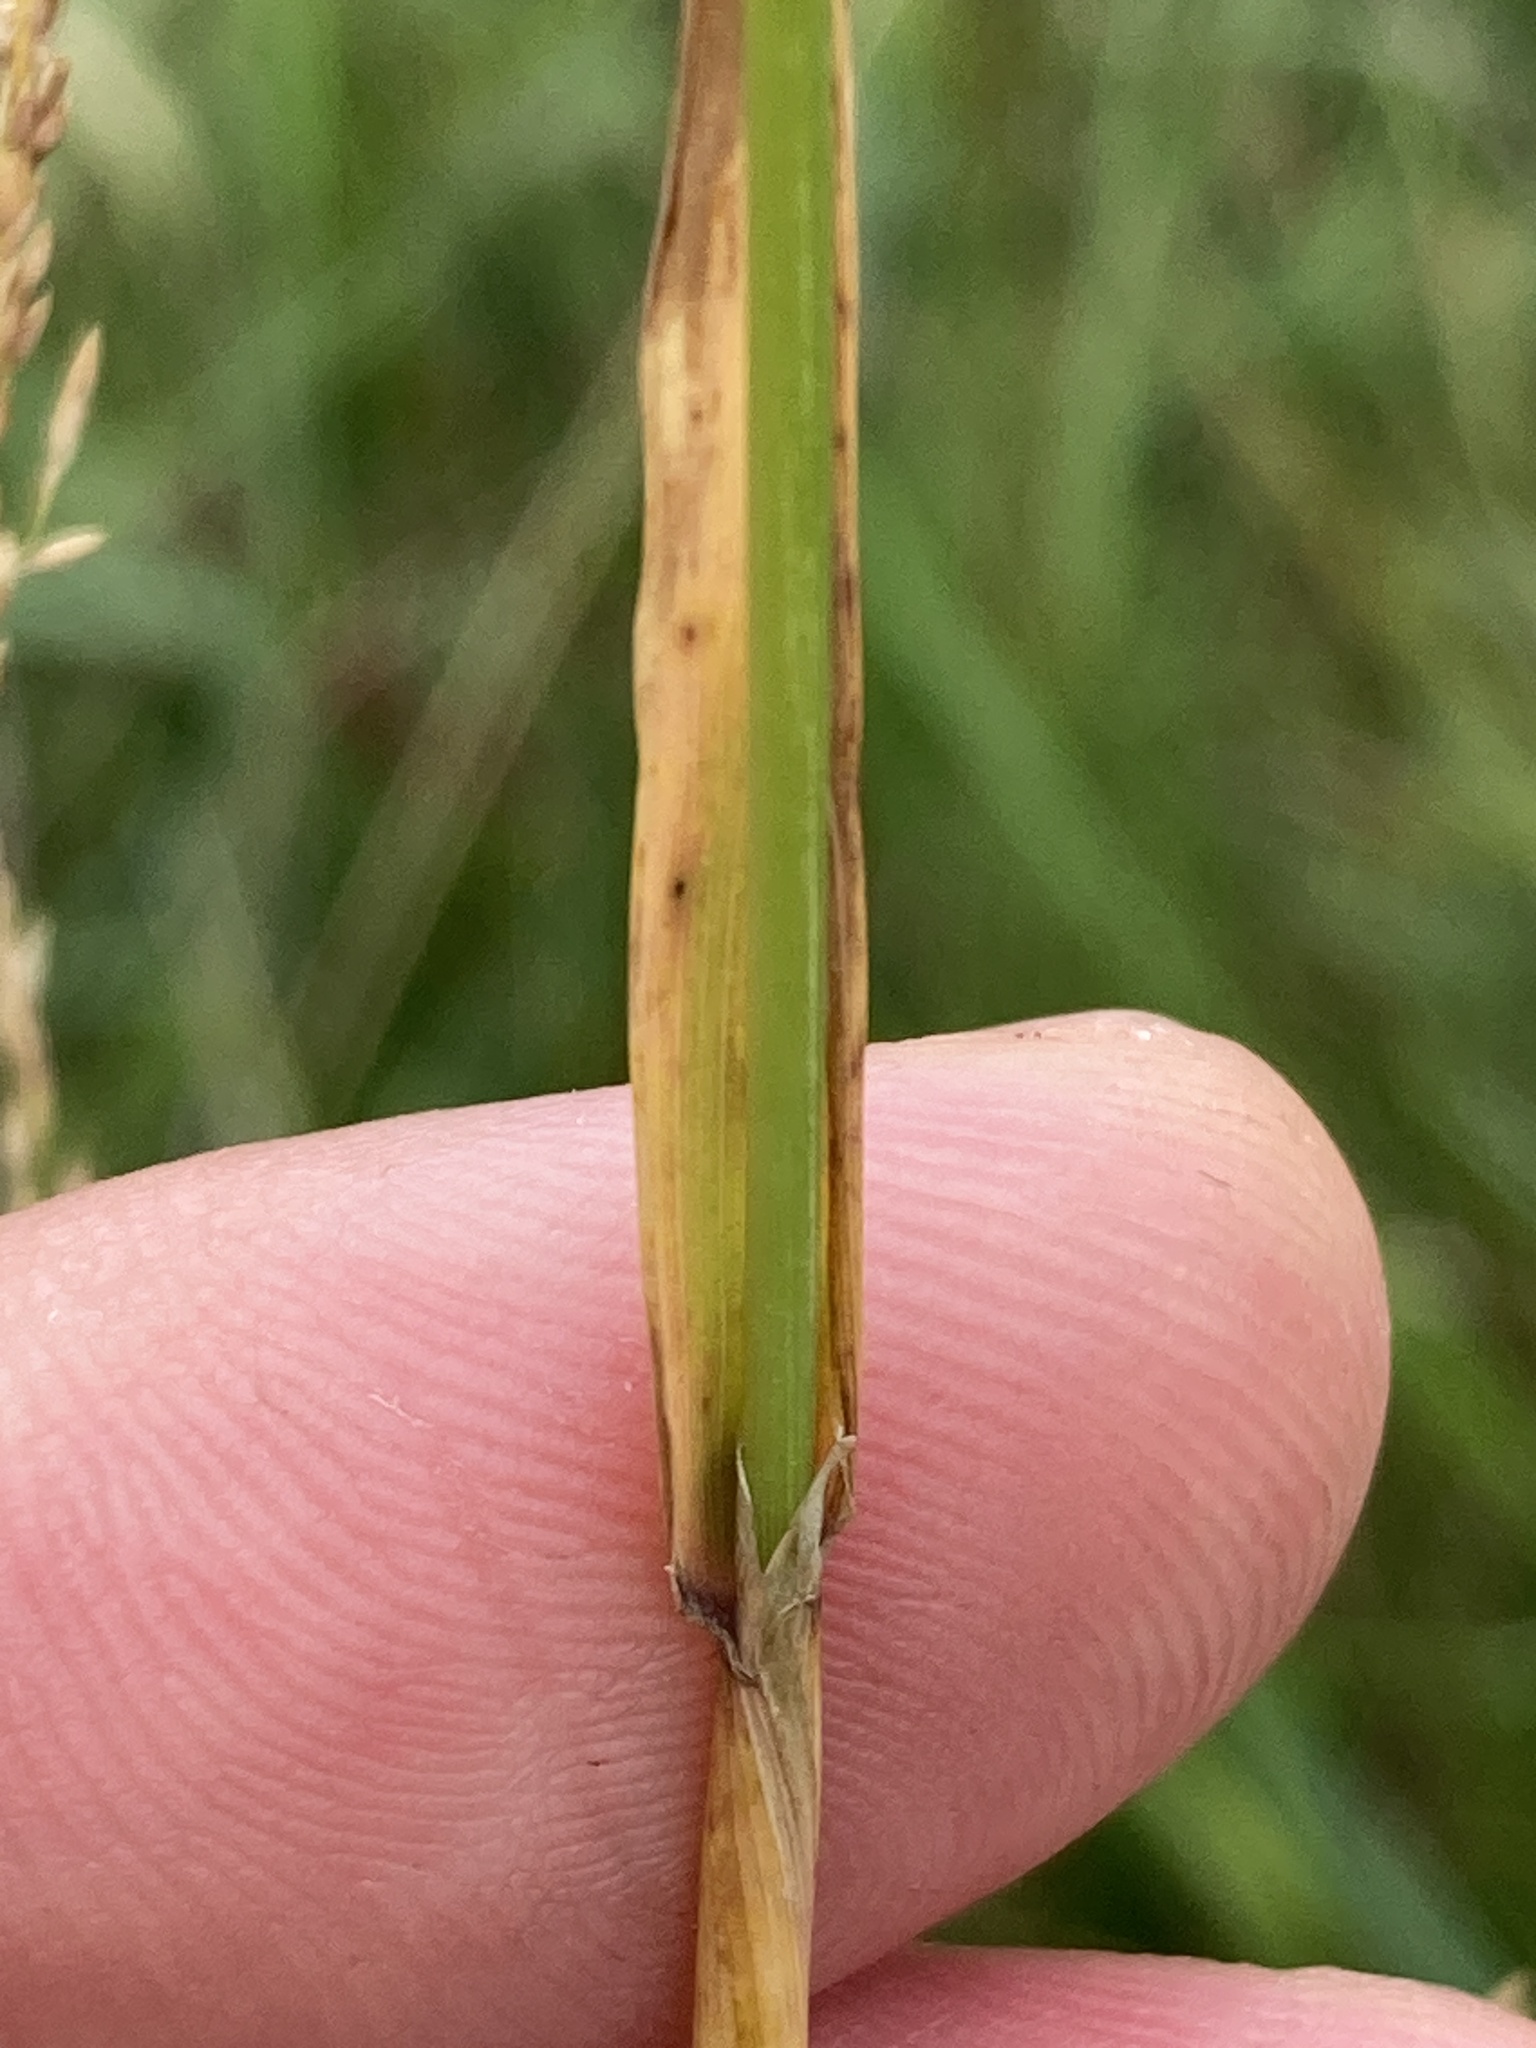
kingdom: Plantae
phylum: Tracheophyta
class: Liliopsida
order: Poales
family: Poaceae
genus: Alopecurus
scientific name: Alopecurus pratensis
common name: Meadow foxtail
